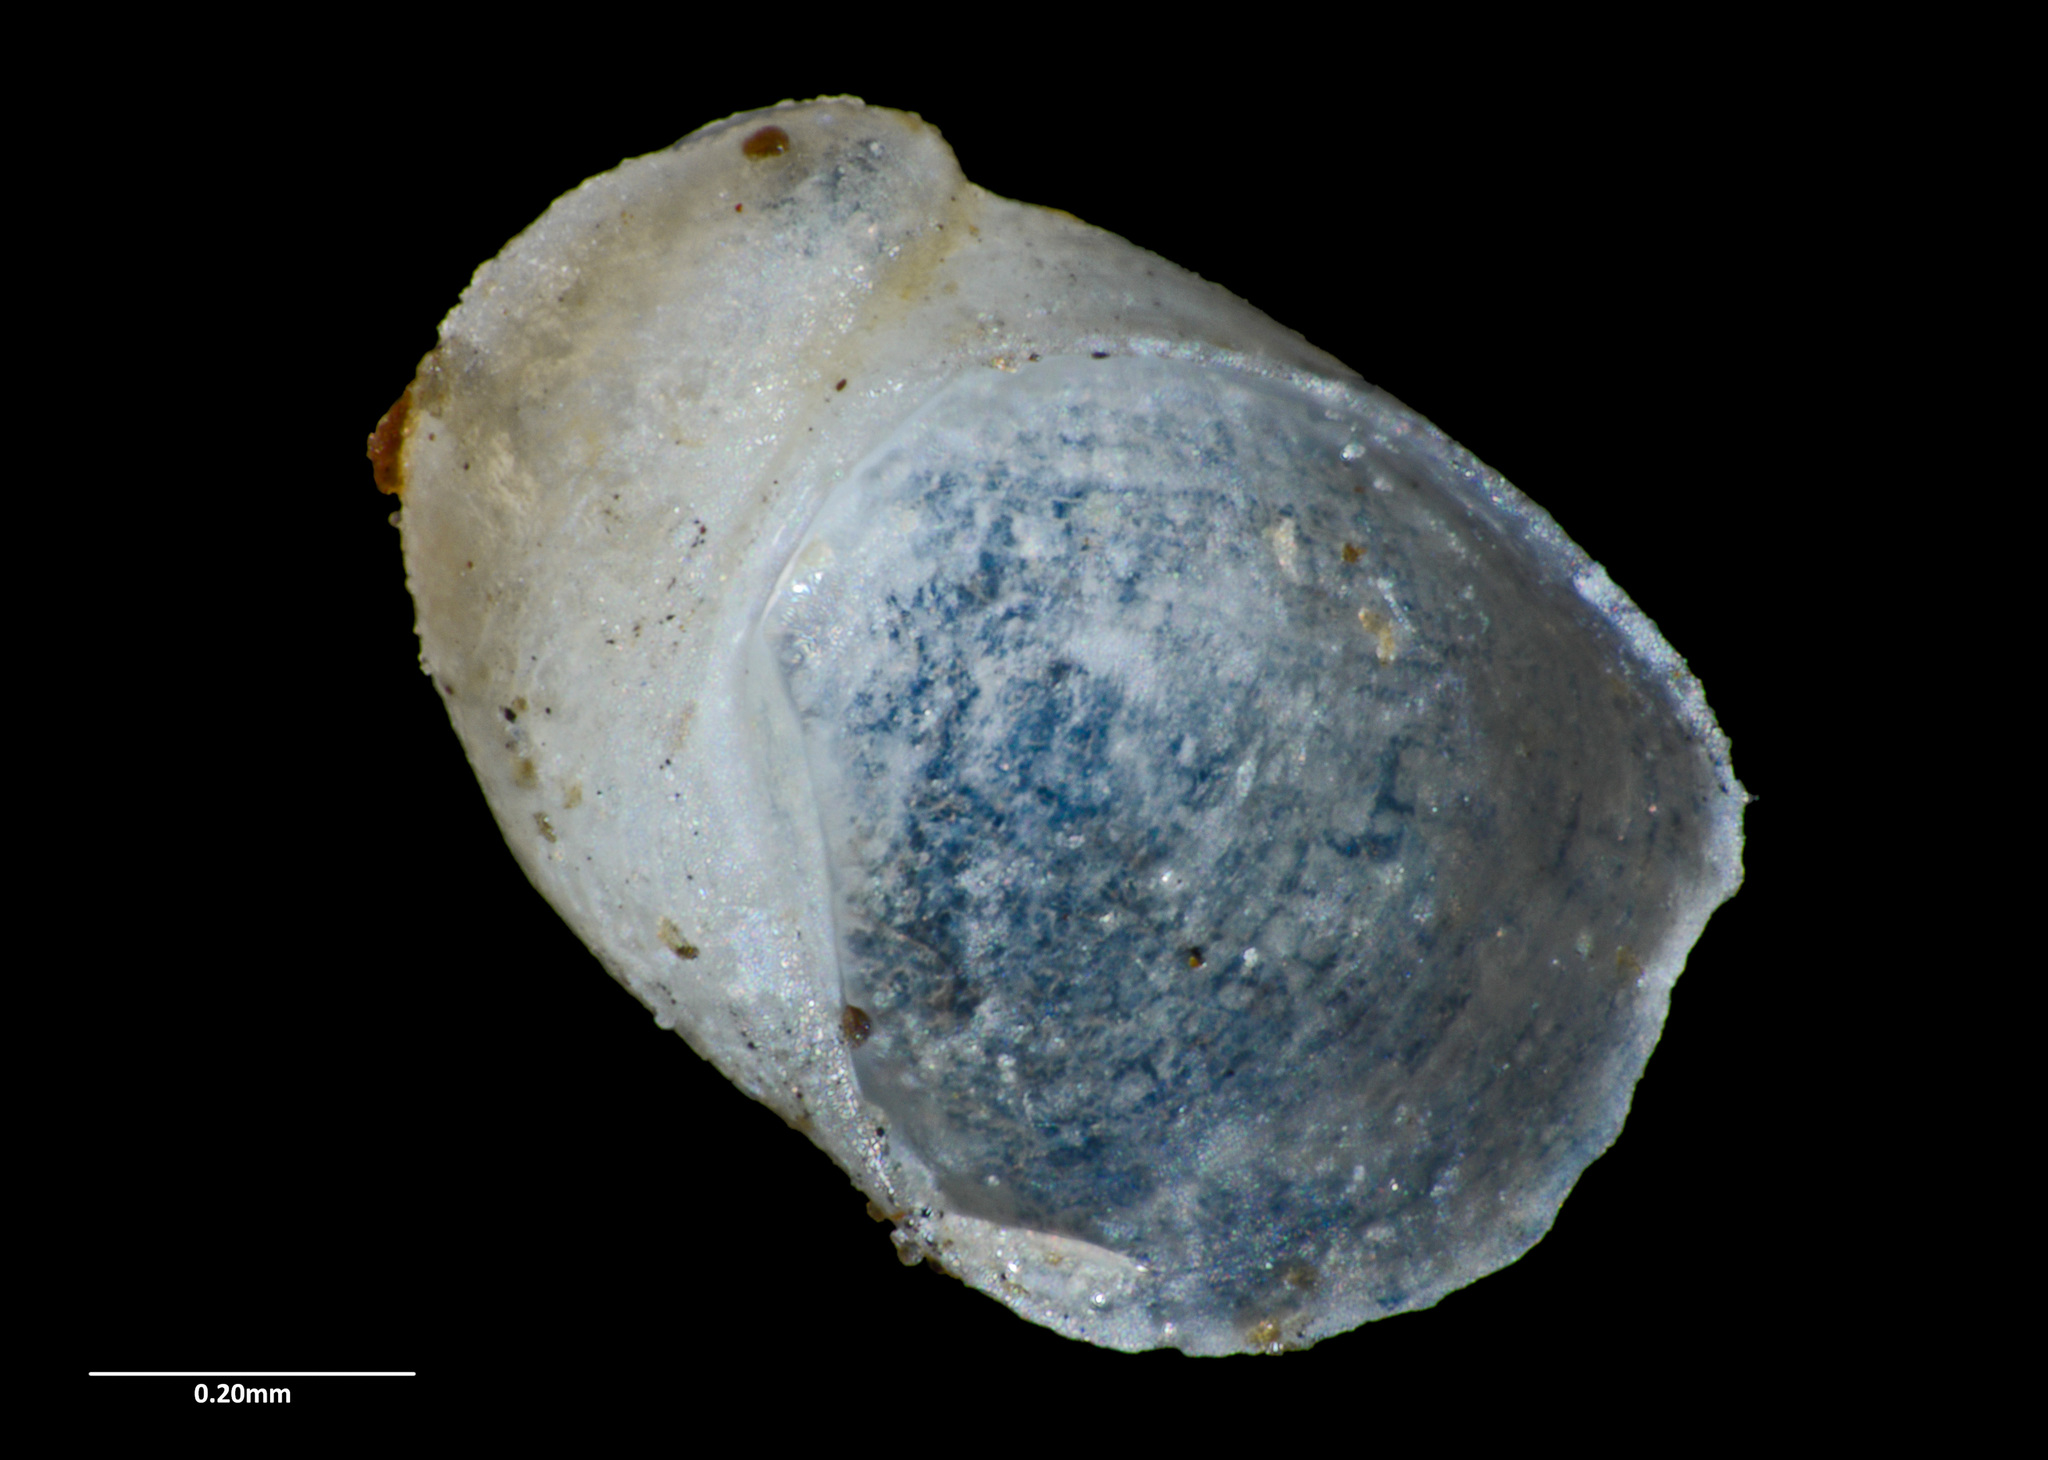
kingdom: Animalia
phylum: Mollusca
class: Gastropoda
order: Lepetellida
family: Larocheidae
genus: Larochea
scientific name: Larochea miranda
